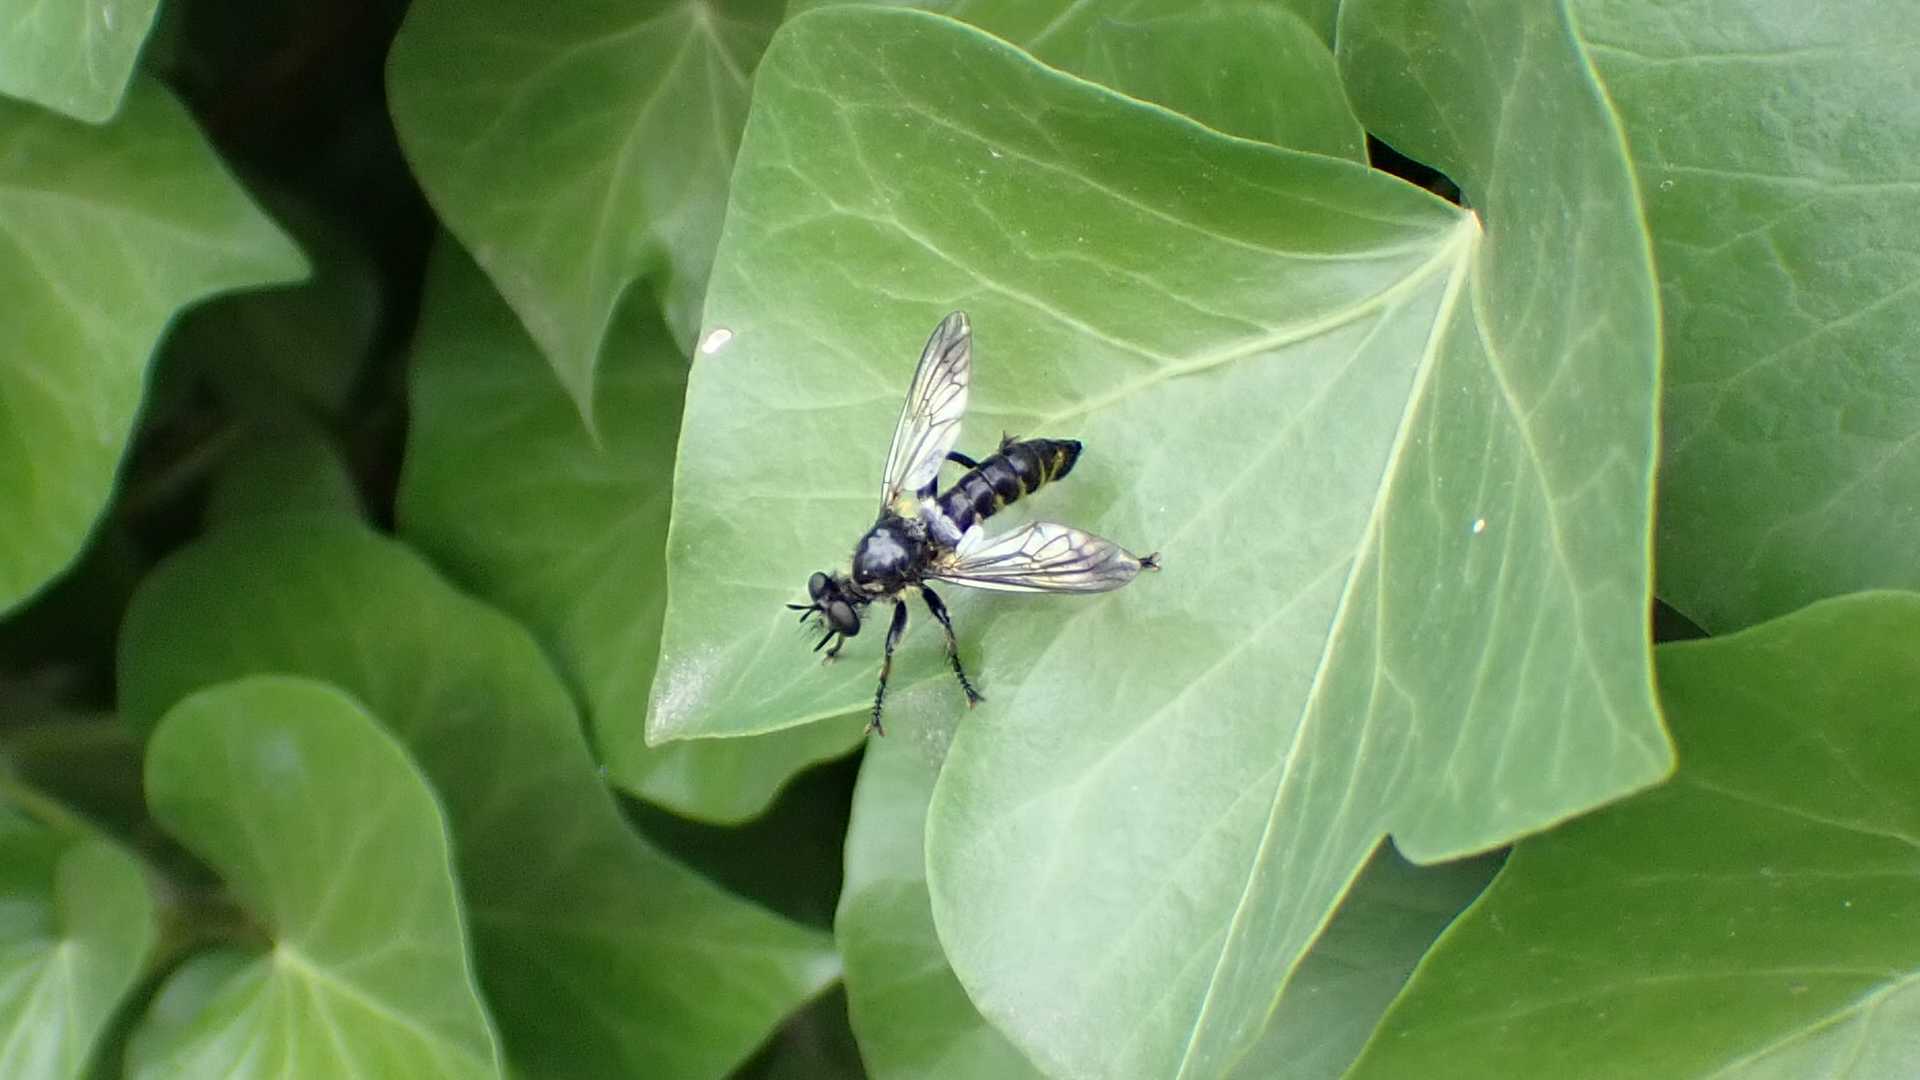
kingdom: Animalia
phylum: Arthropoda
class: Insecta
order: Diptera
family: Asilidae
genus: Lamyra
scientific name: Lamyra fimbriata
